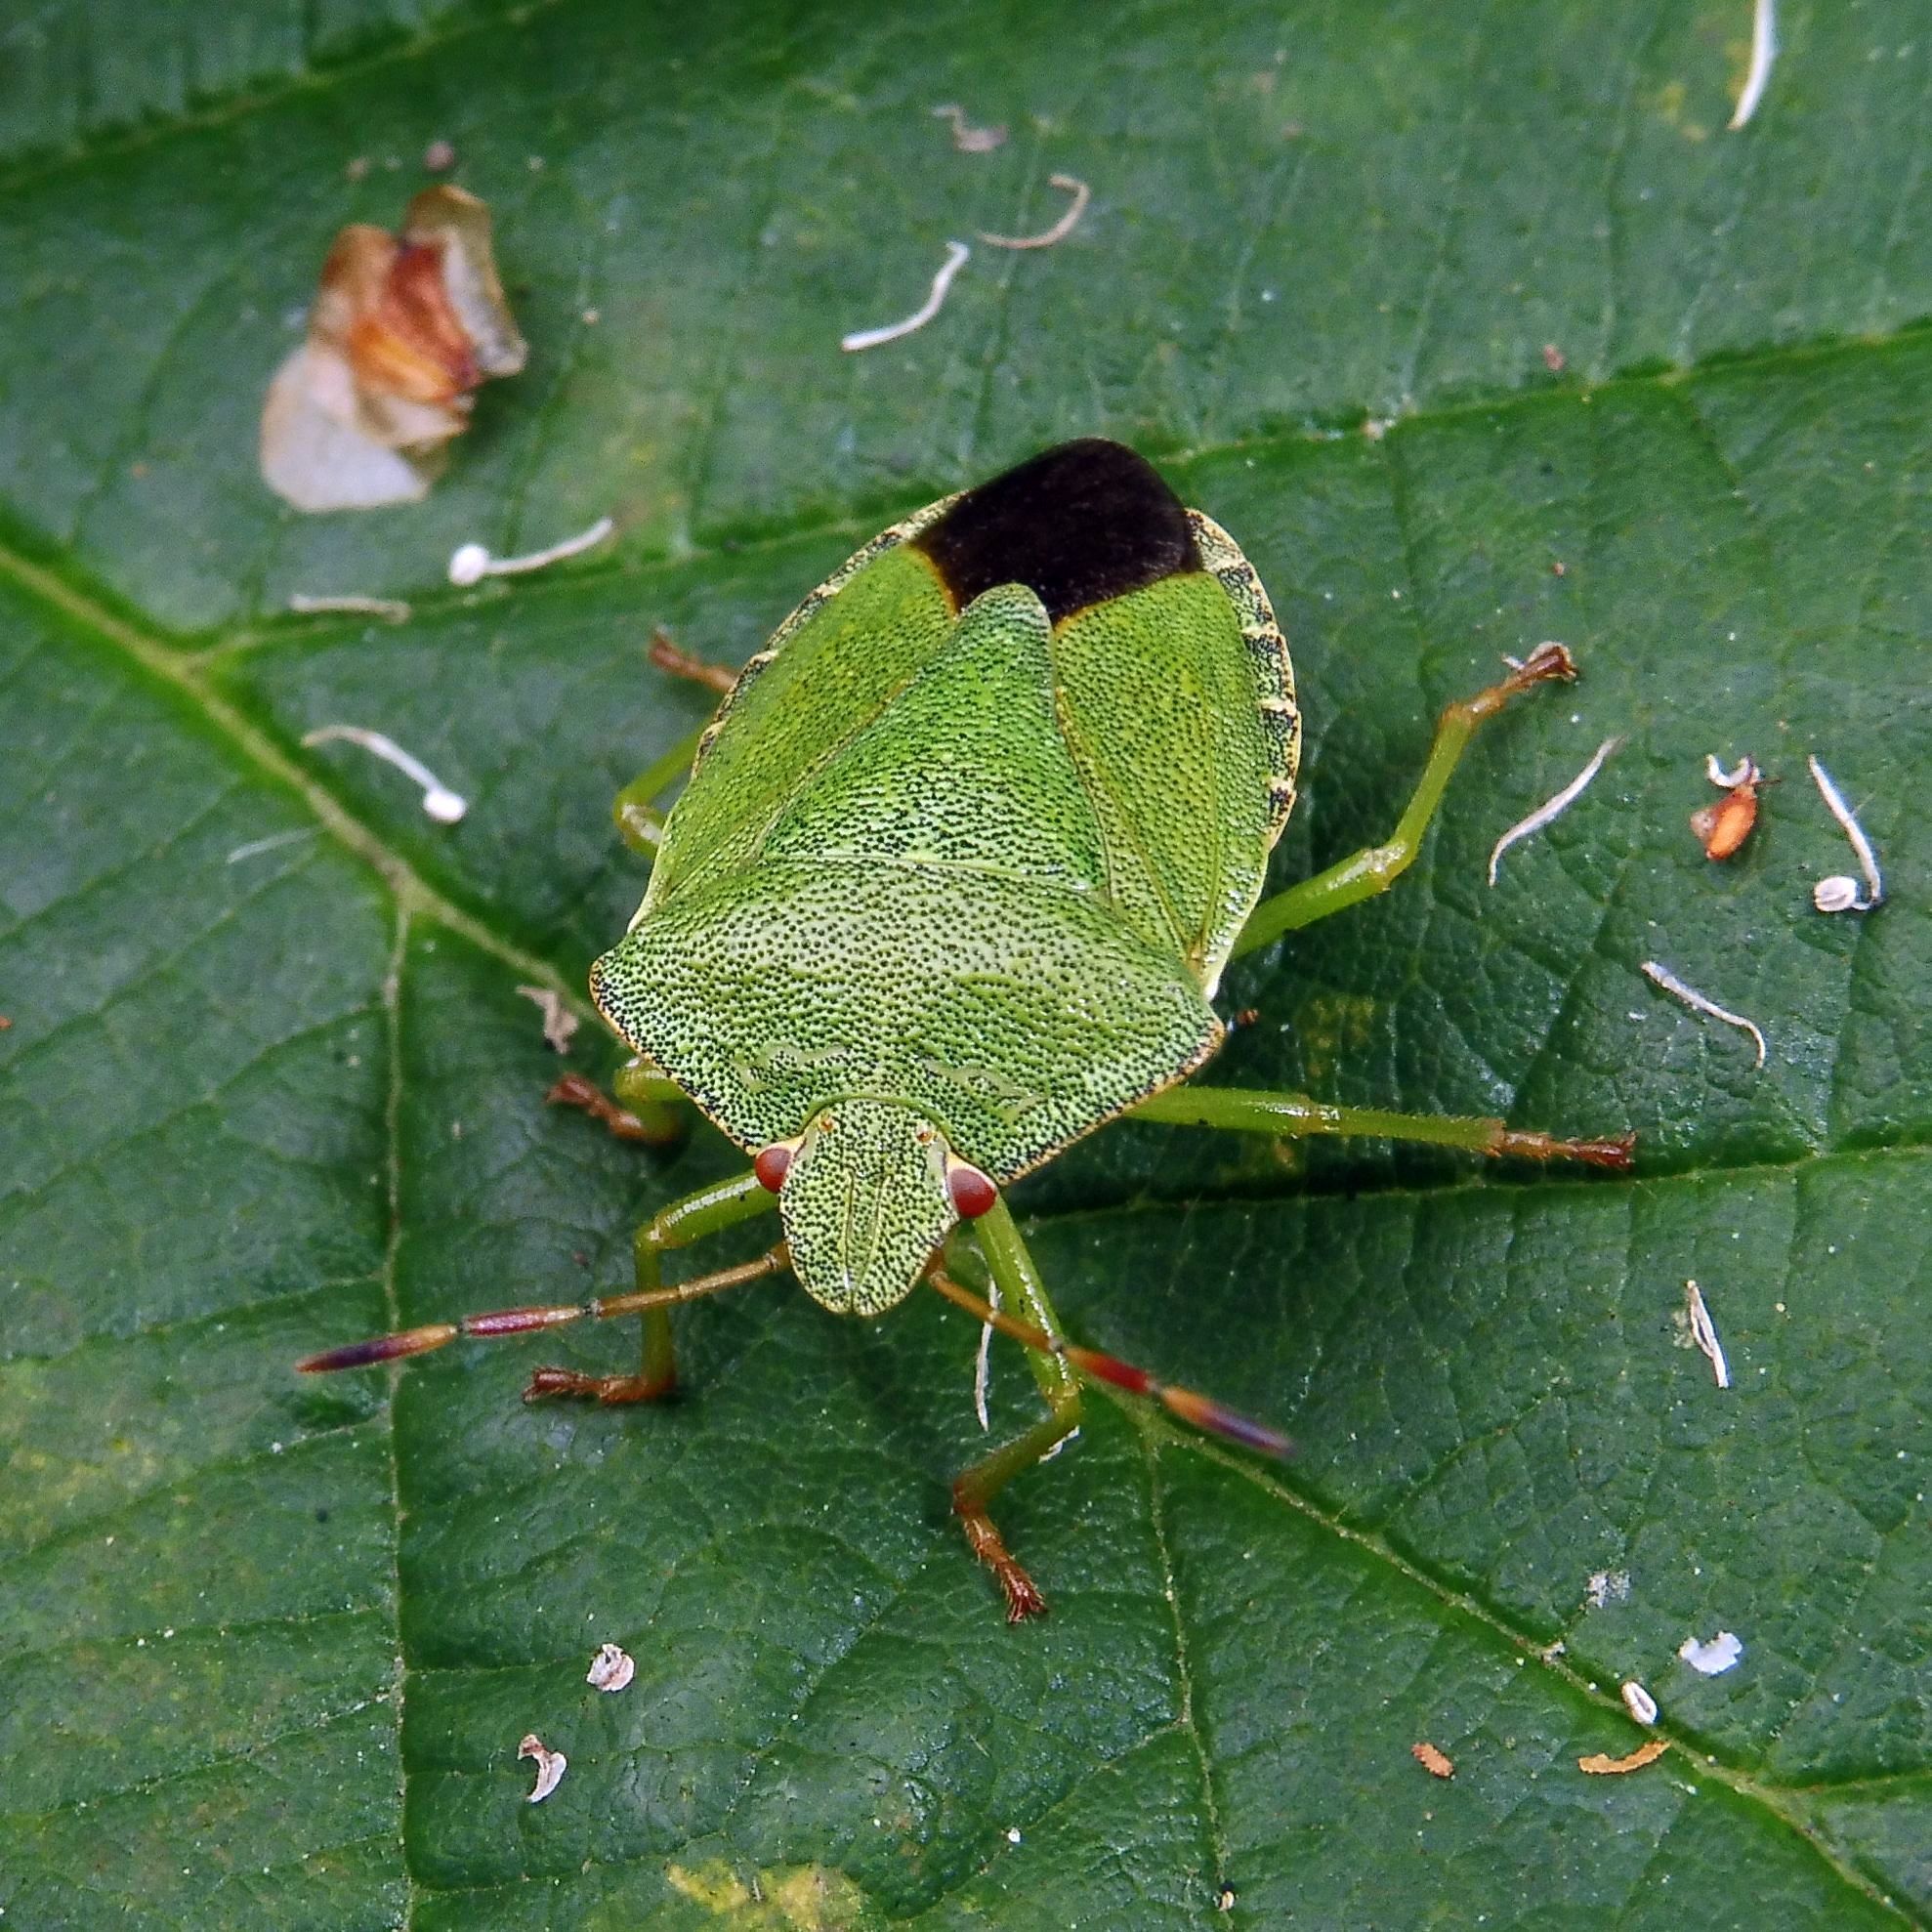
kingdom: Animalia
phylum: Arthropoda
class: Insecta
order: Hemiptera
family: Pentatomidae
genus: Palomena
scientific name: Palomena prasina
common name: Green shieldbug
